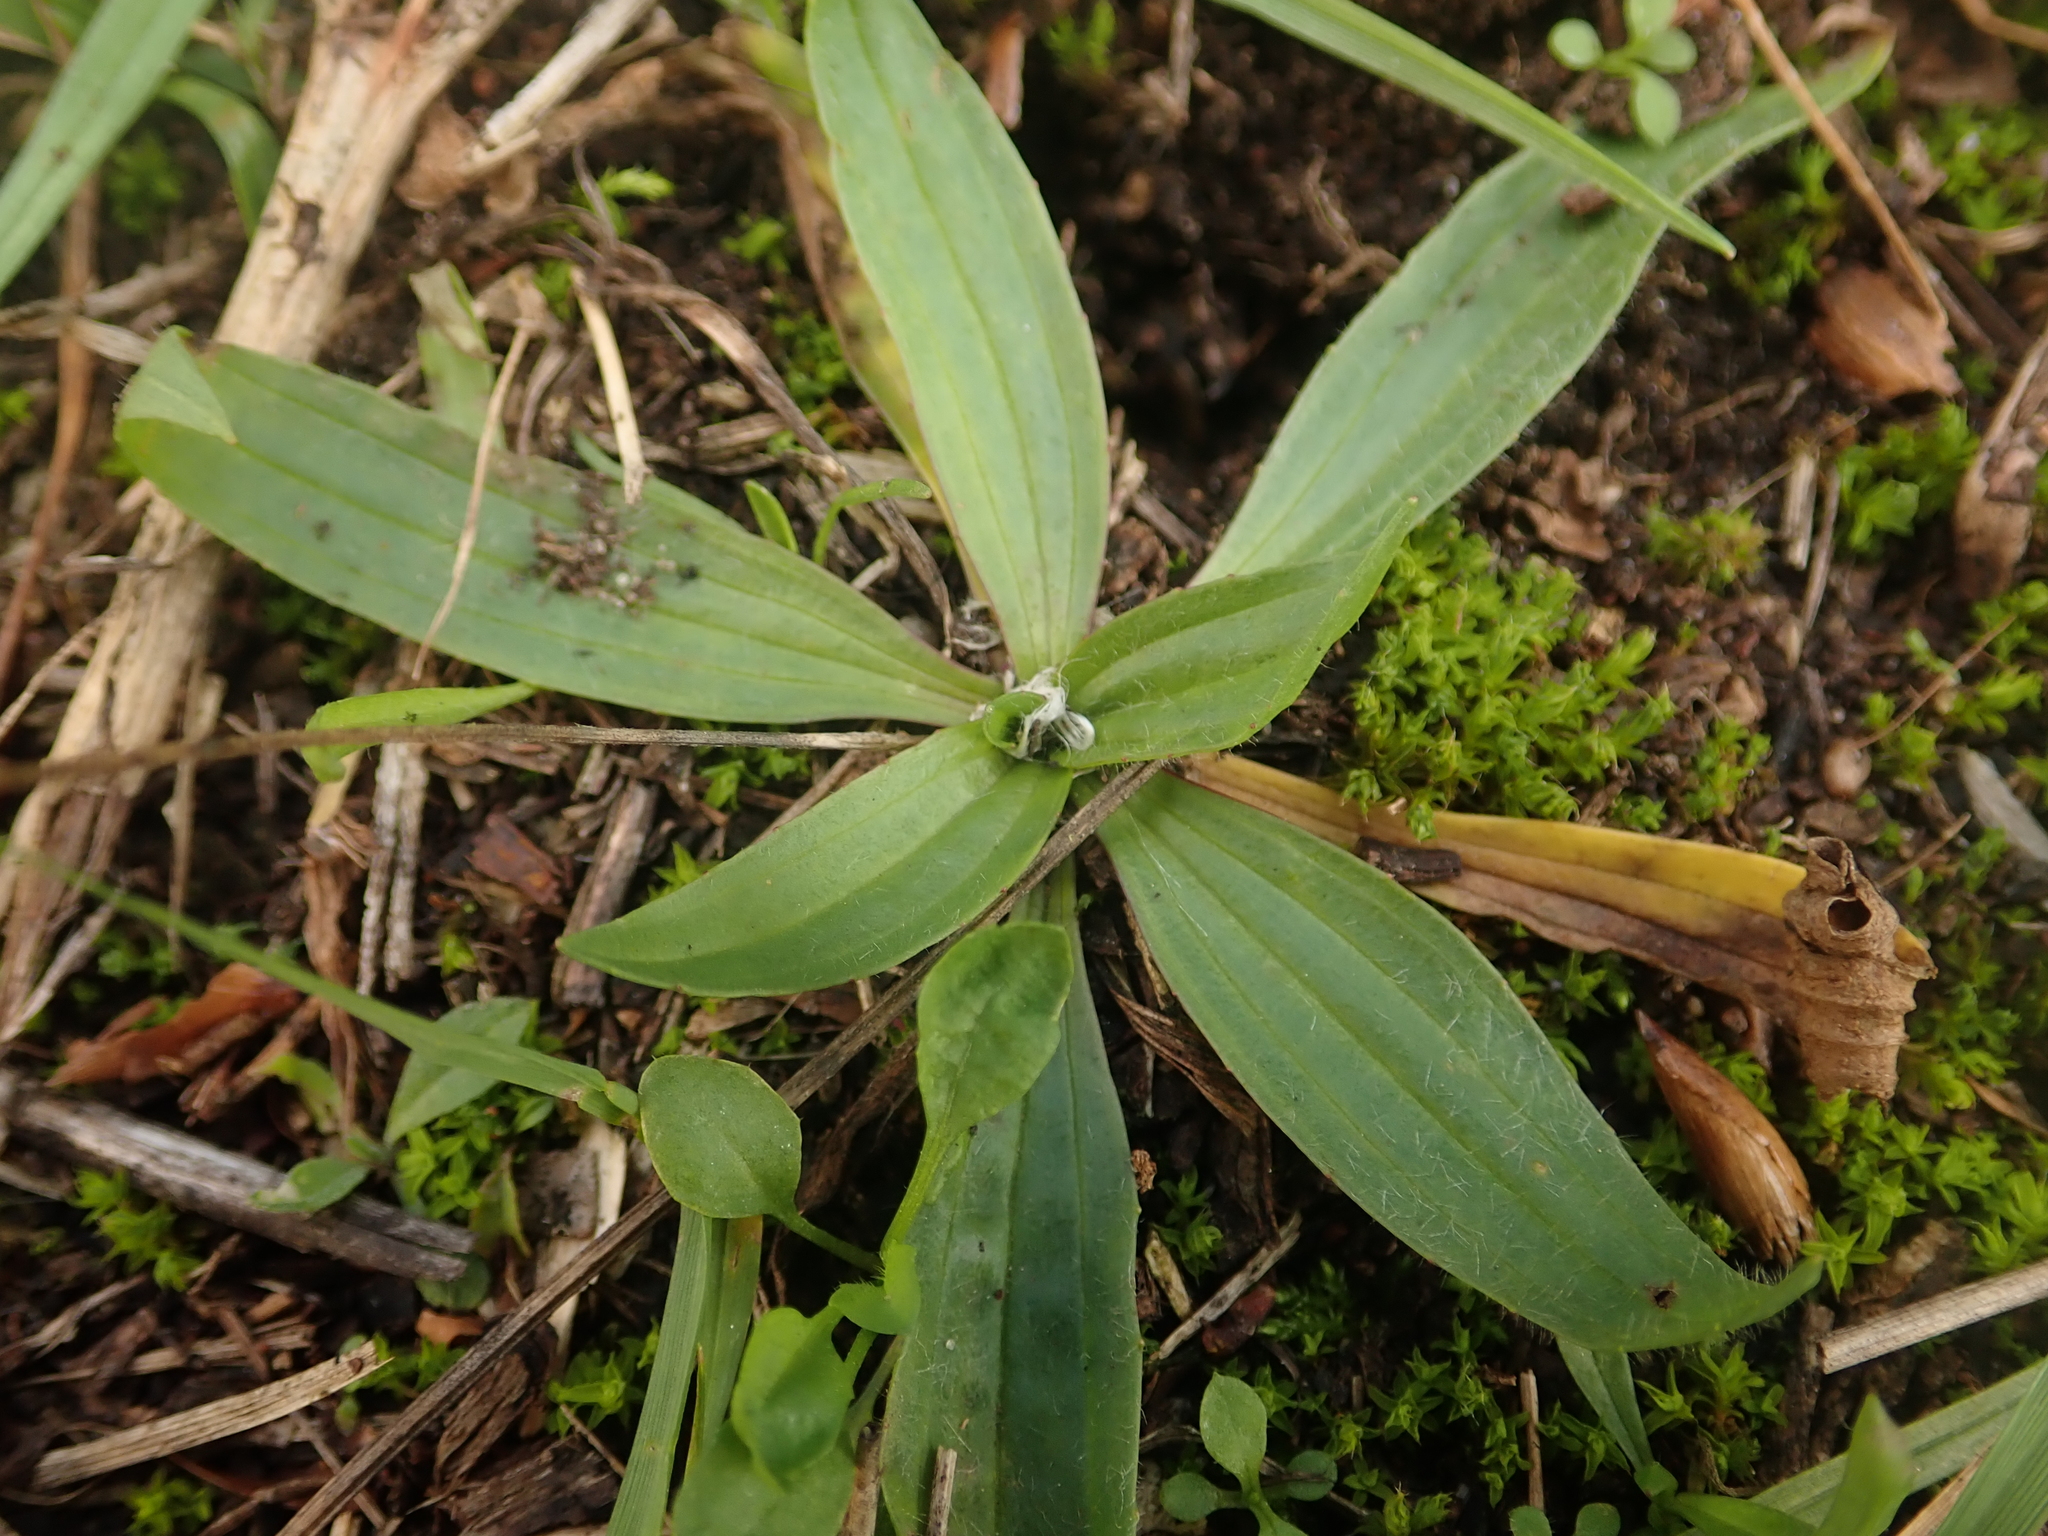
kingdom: Plantae
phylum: Tracheophyta
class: Magnoliopsida
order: Lamiales
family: Plantaginaceae
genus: Plantago
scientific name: Plantago lanceolata
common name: Ribwort plantain
